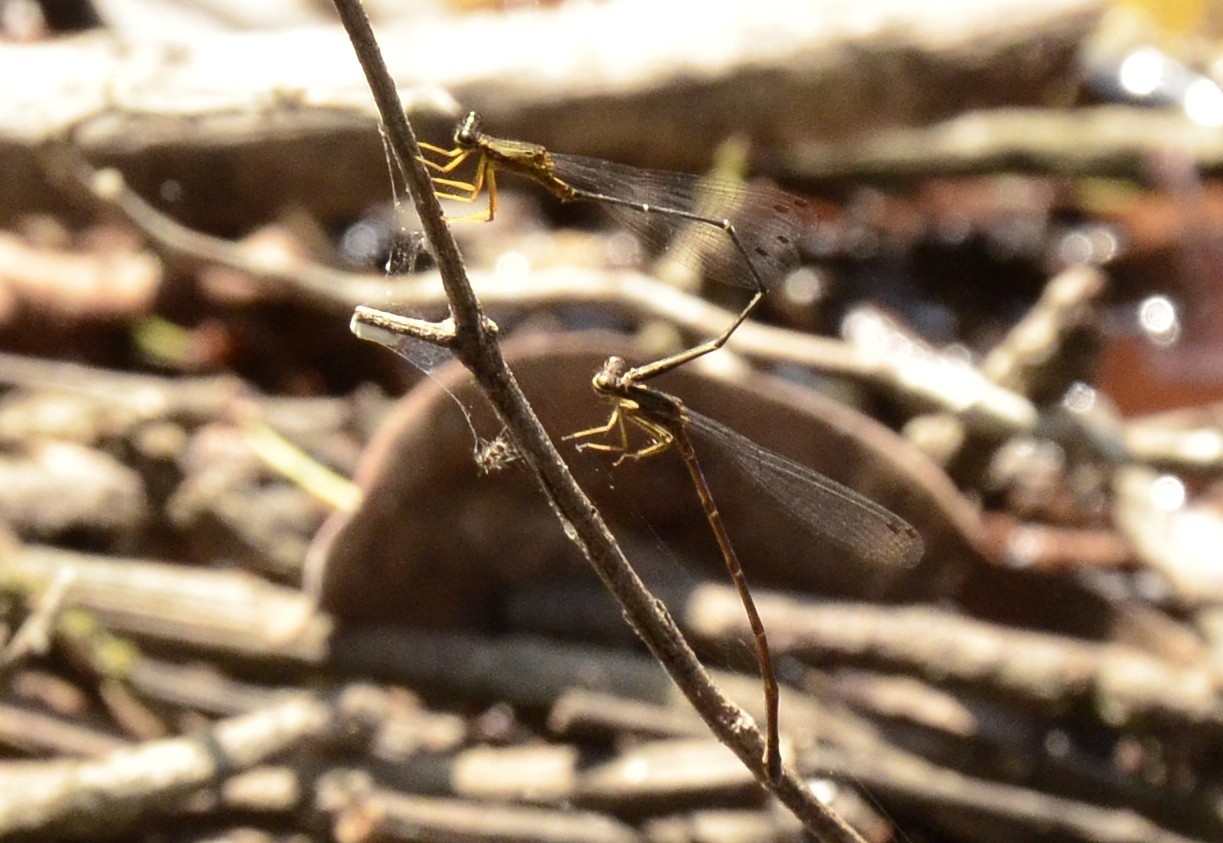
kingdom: Animalia
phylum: Arthropoda
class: Insecta
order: Odonata
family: Platycnemididae
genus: Copera
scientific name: Copera vittata
